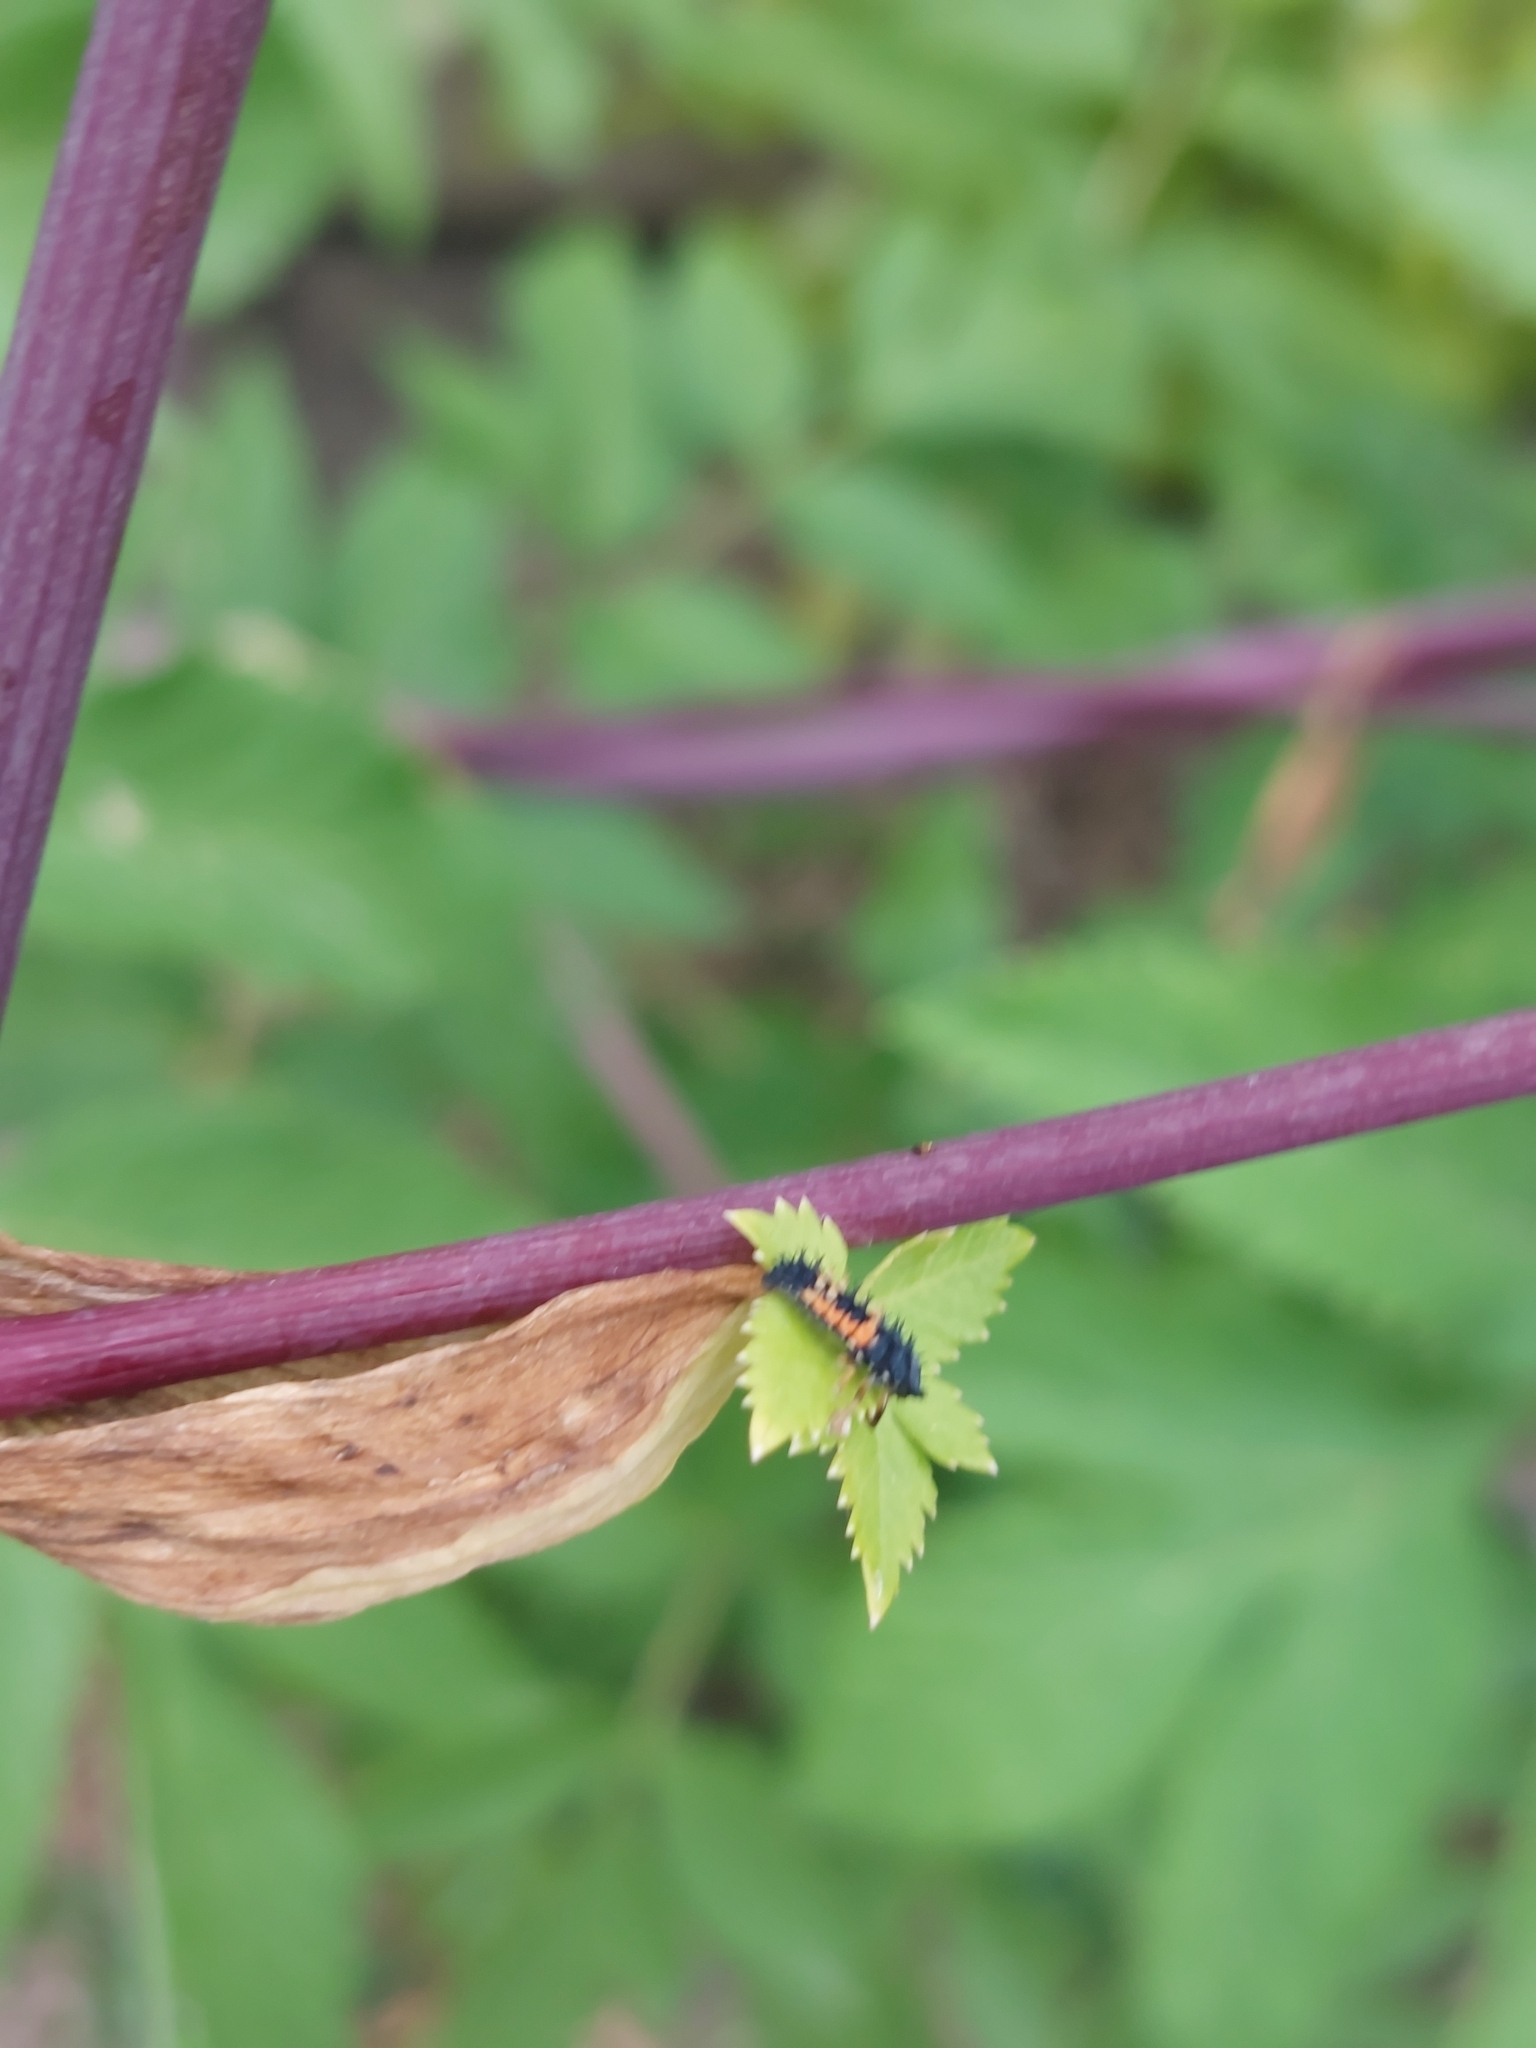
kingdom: Animalia
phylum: Arthropoda
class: Insecta
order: Coleoptera
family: Coccinellidae
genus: Harmonia
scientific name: Harmonia axyridis
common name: Harlequin ladybird
